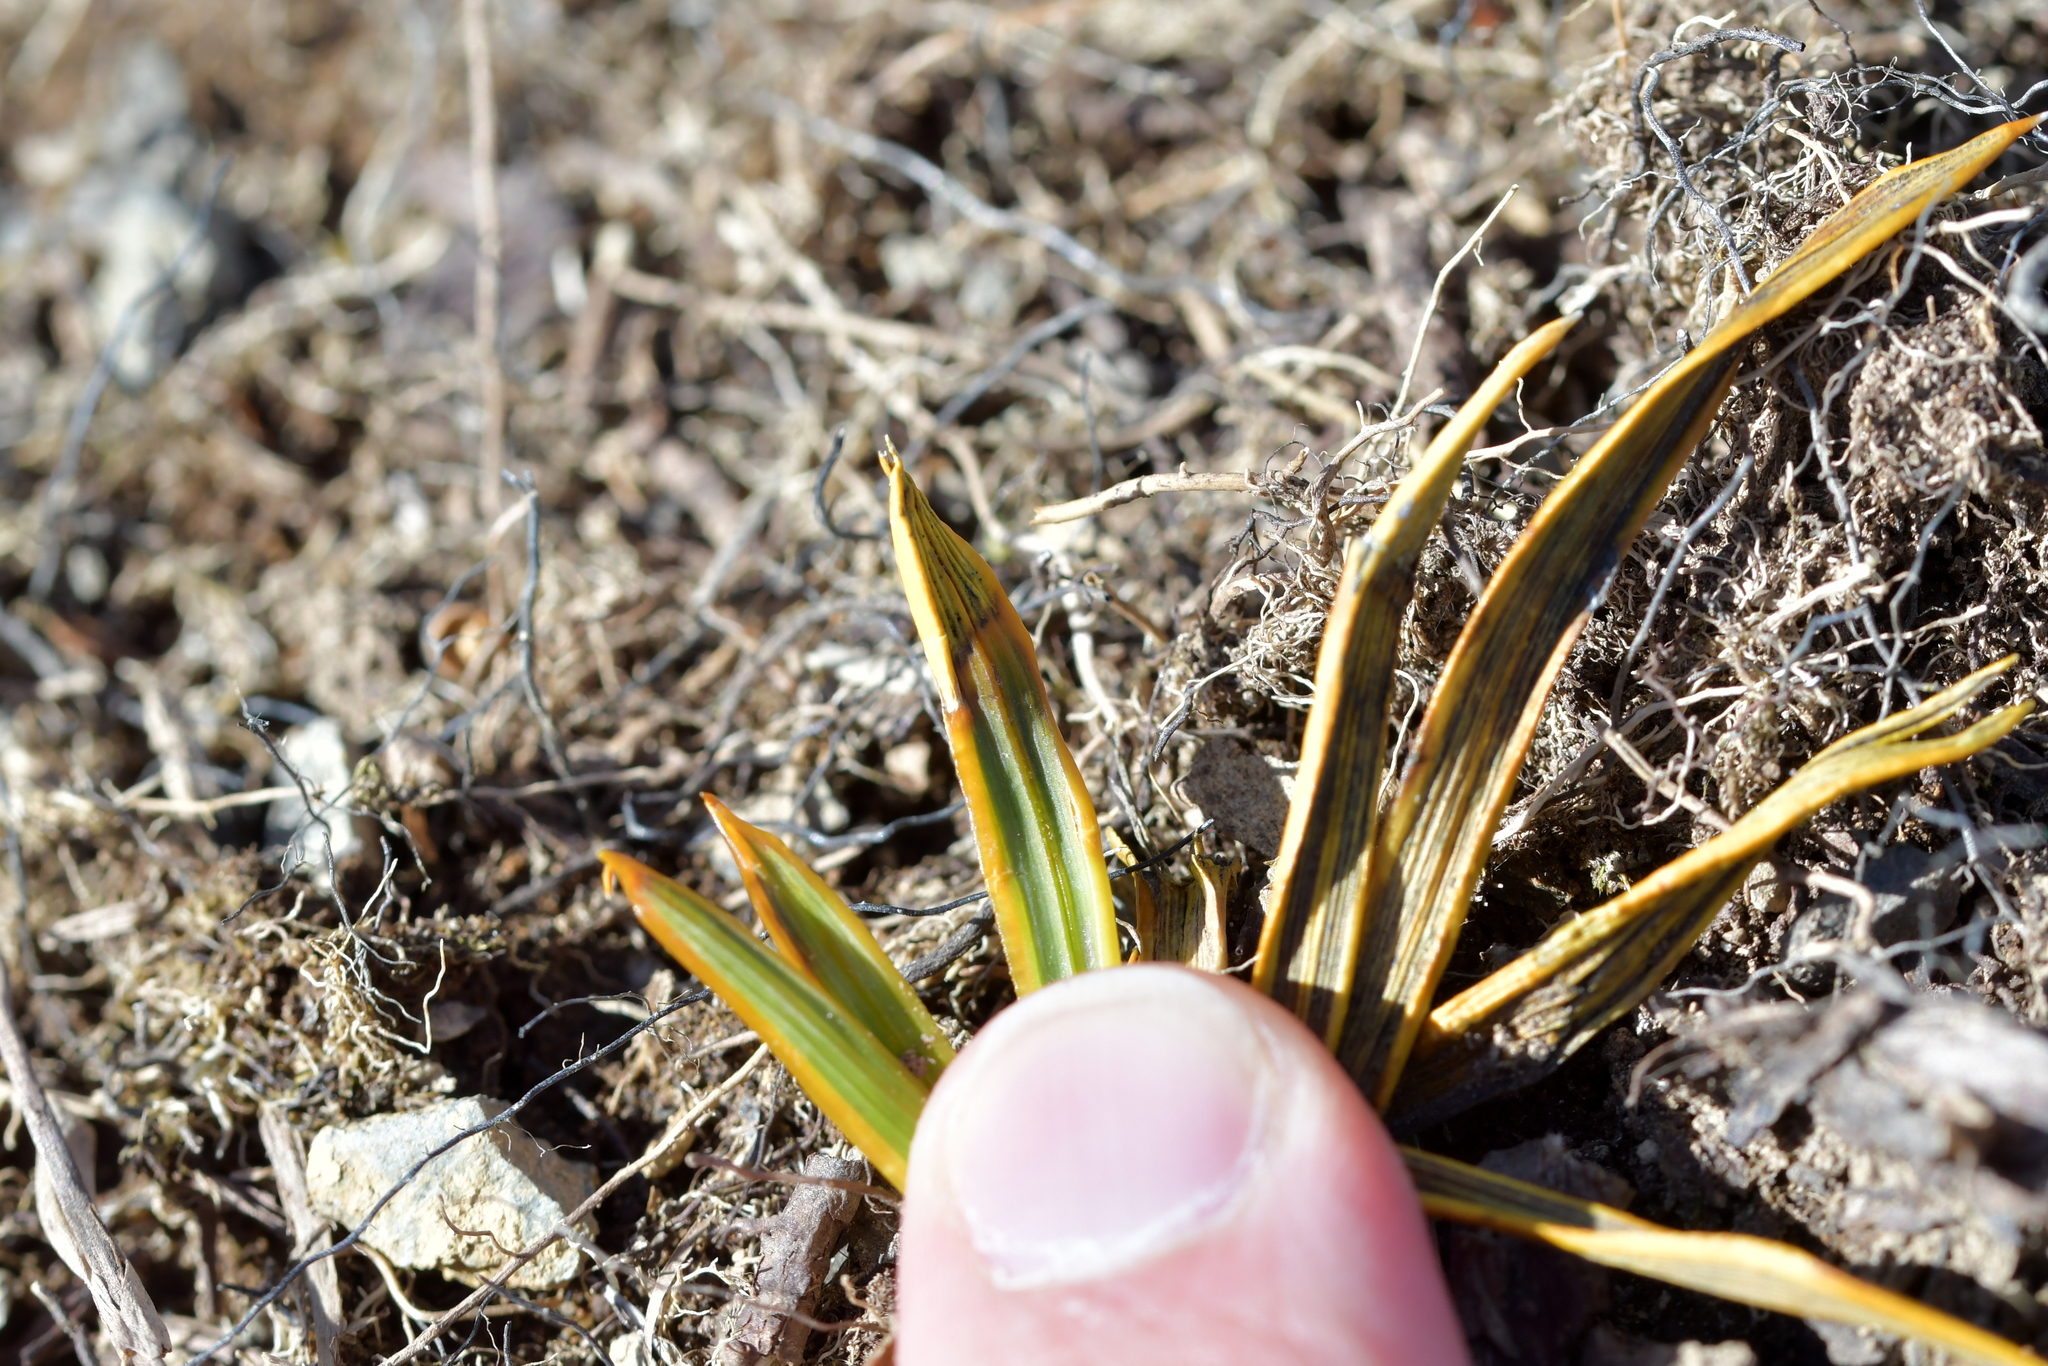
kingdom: Plantae
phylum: Tracheophyta
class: Magnoliopsida
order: Apiales
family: Apiaceae
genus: Aciphylla
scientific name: Aciphylla aurea
